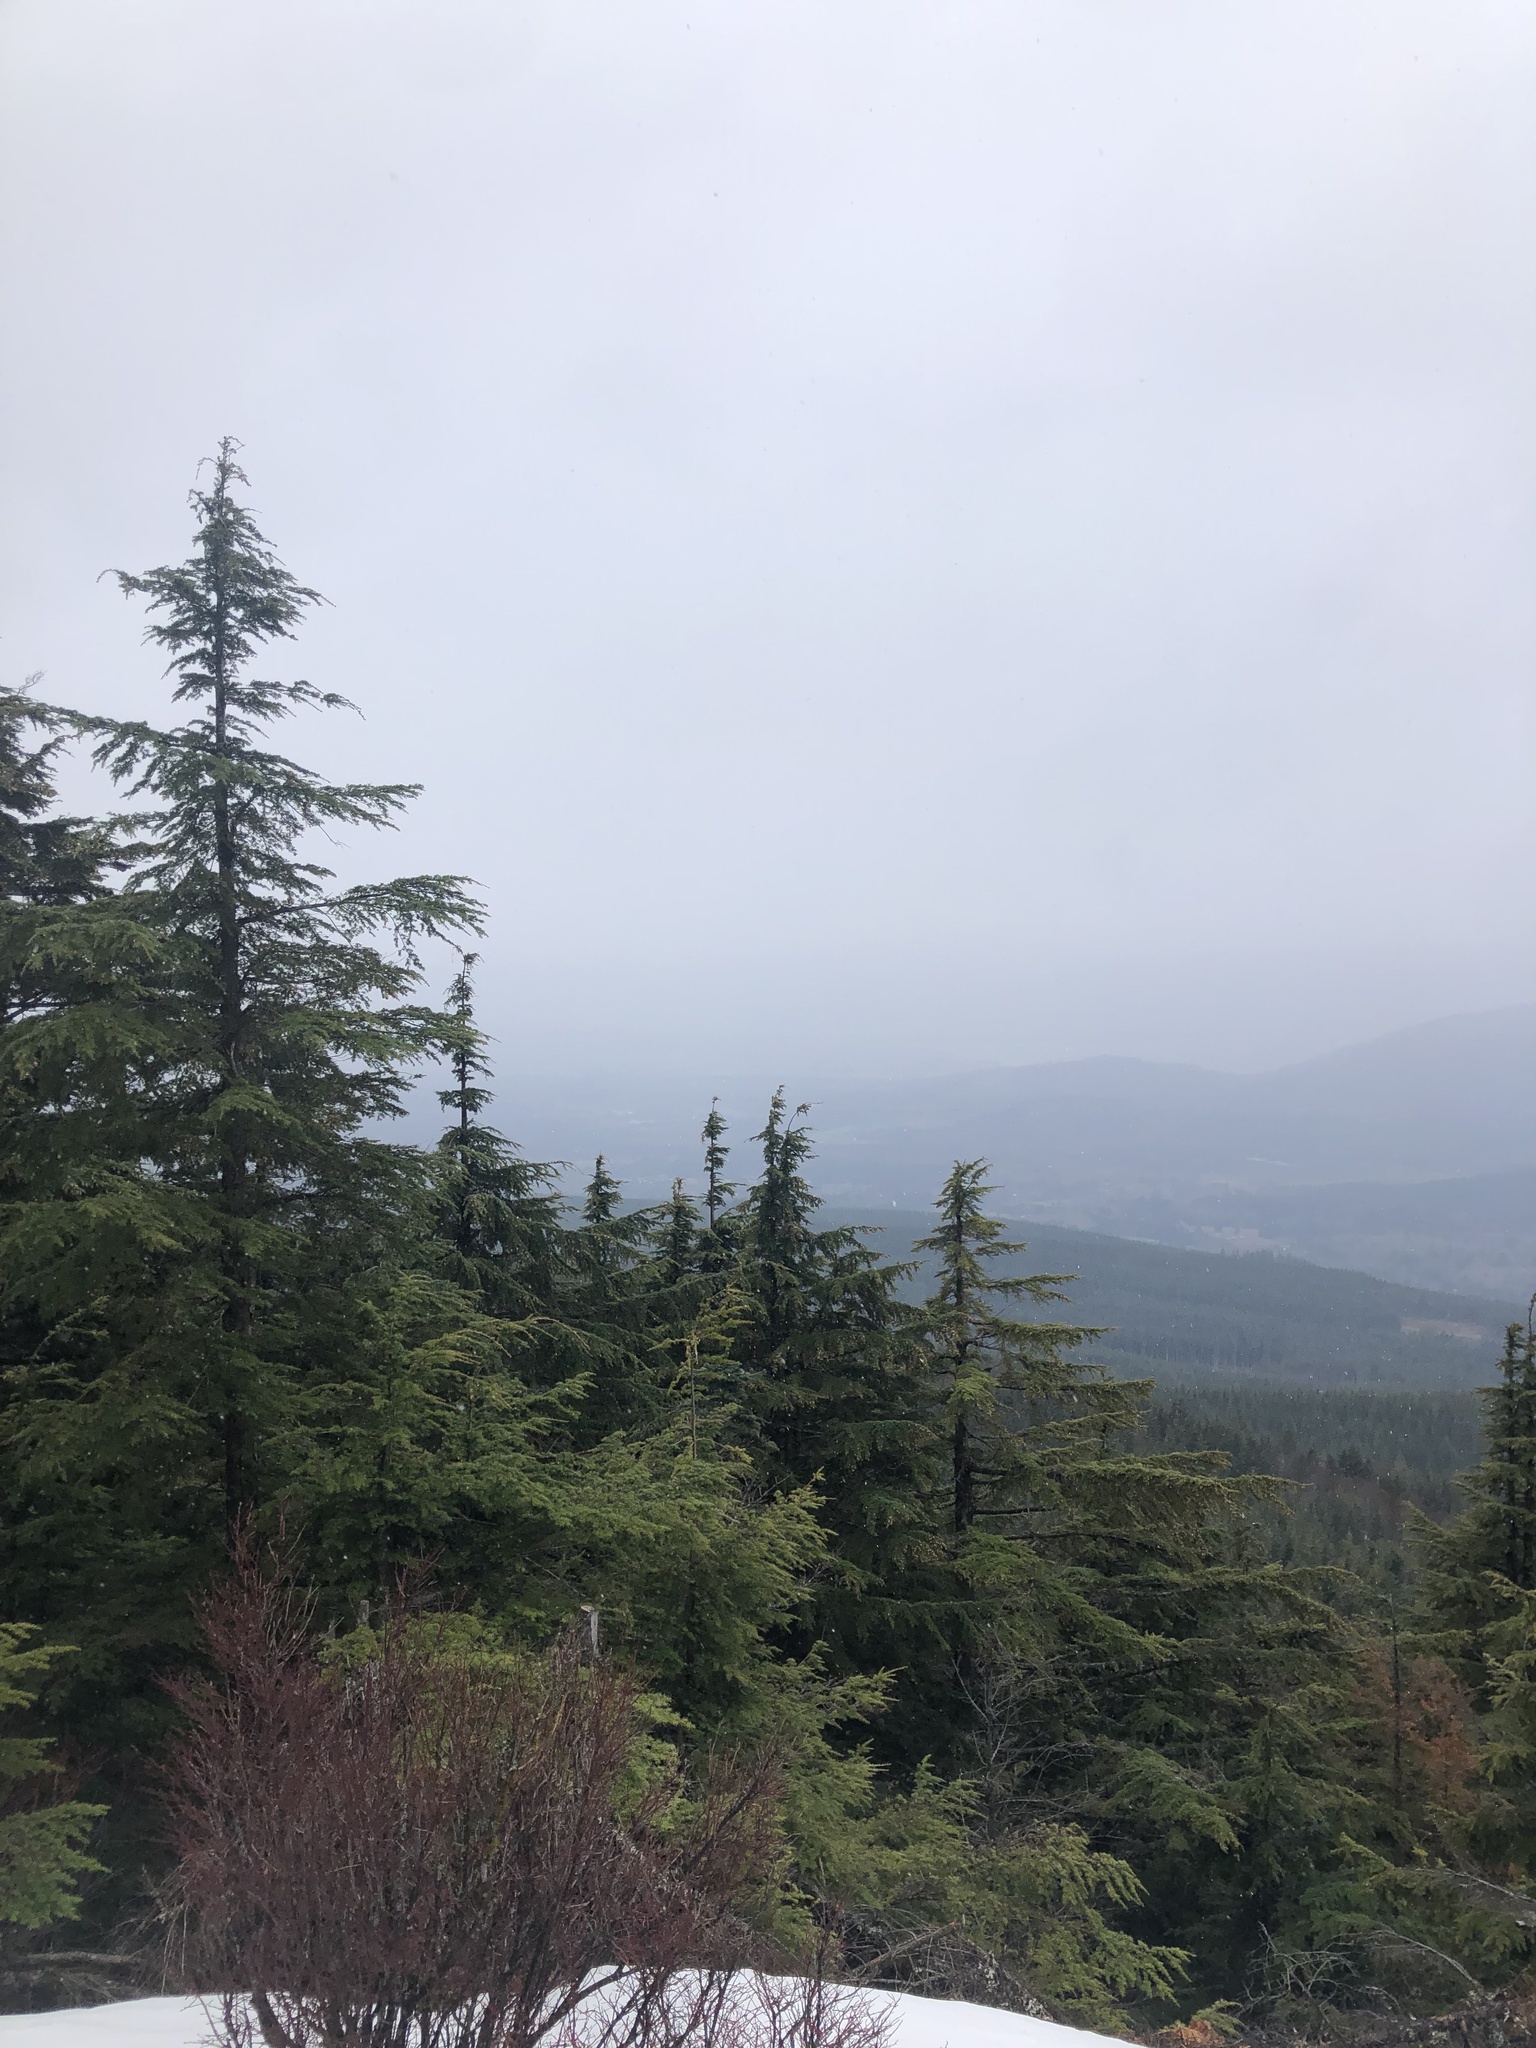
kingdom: Plantae
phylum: Tracheophyta
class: Pinopsida
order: Pinales
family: Pinaceae
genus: Tsuga
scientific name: Tsuga heterophylla
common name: Western hemlock
